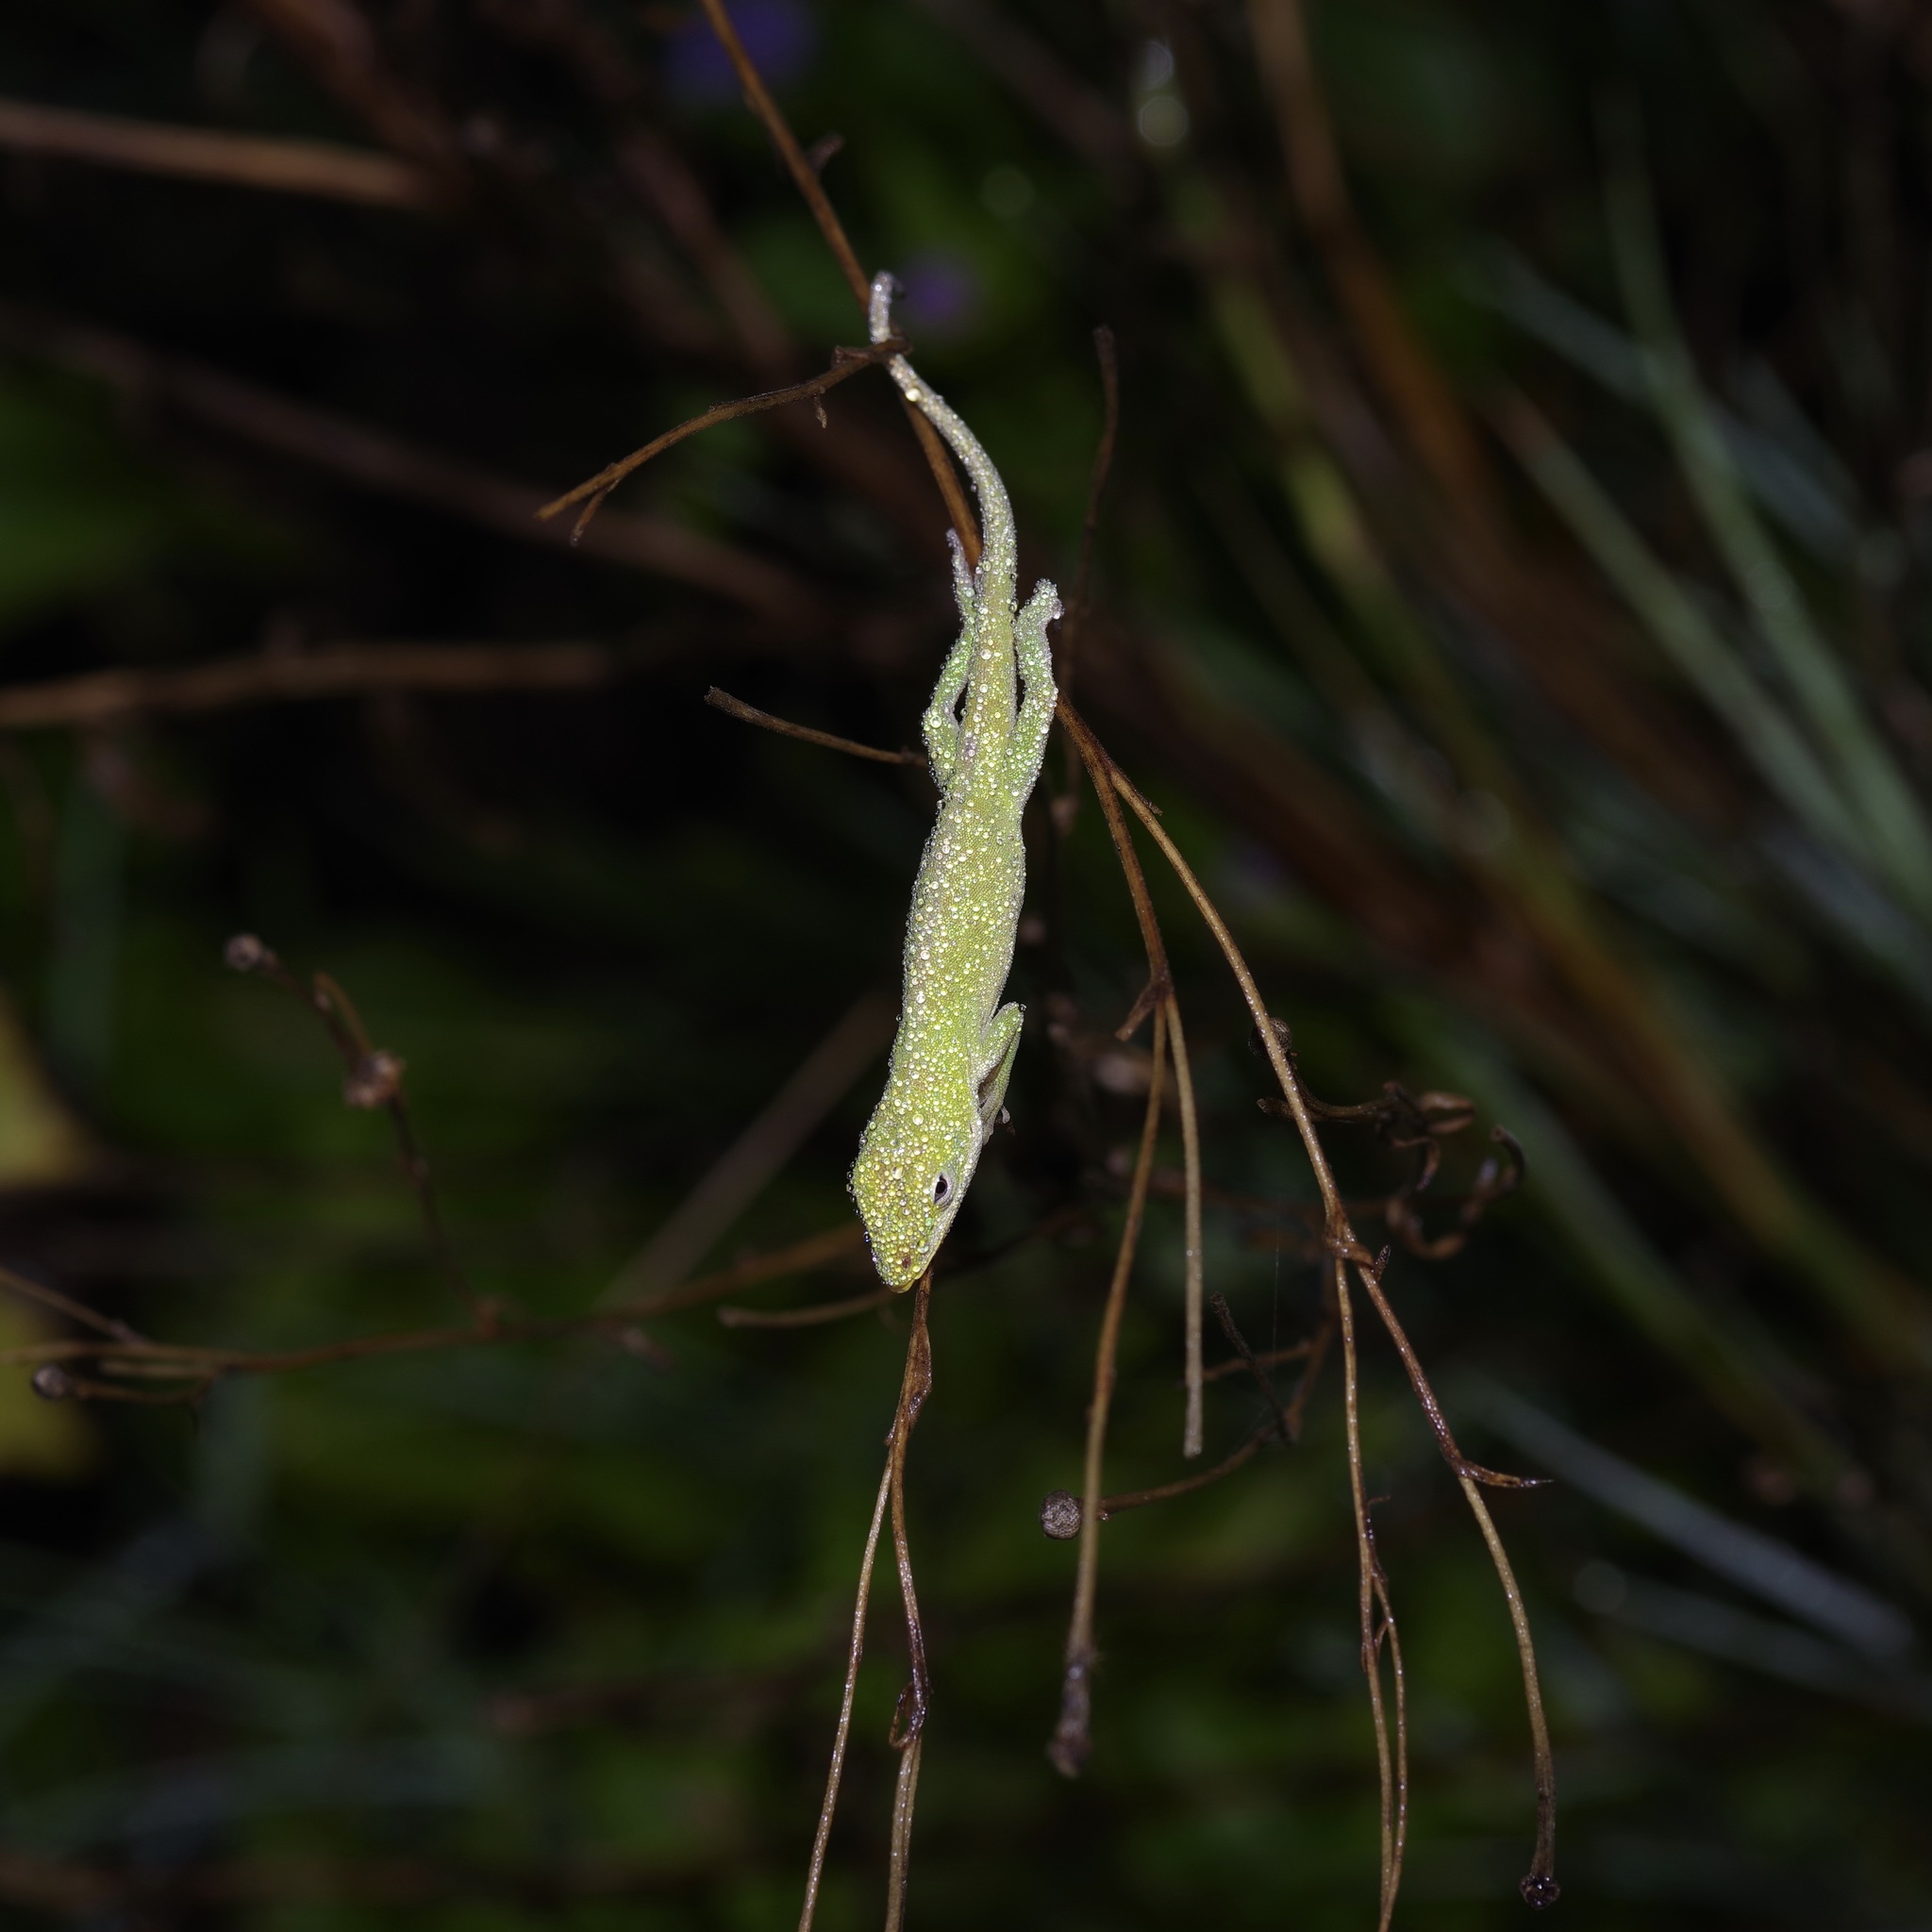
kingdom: Animalia
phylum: Chordata
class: Squamata
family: Dactyloidae
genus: Anolis
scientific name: Anolis carolinensis
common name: Green anole
